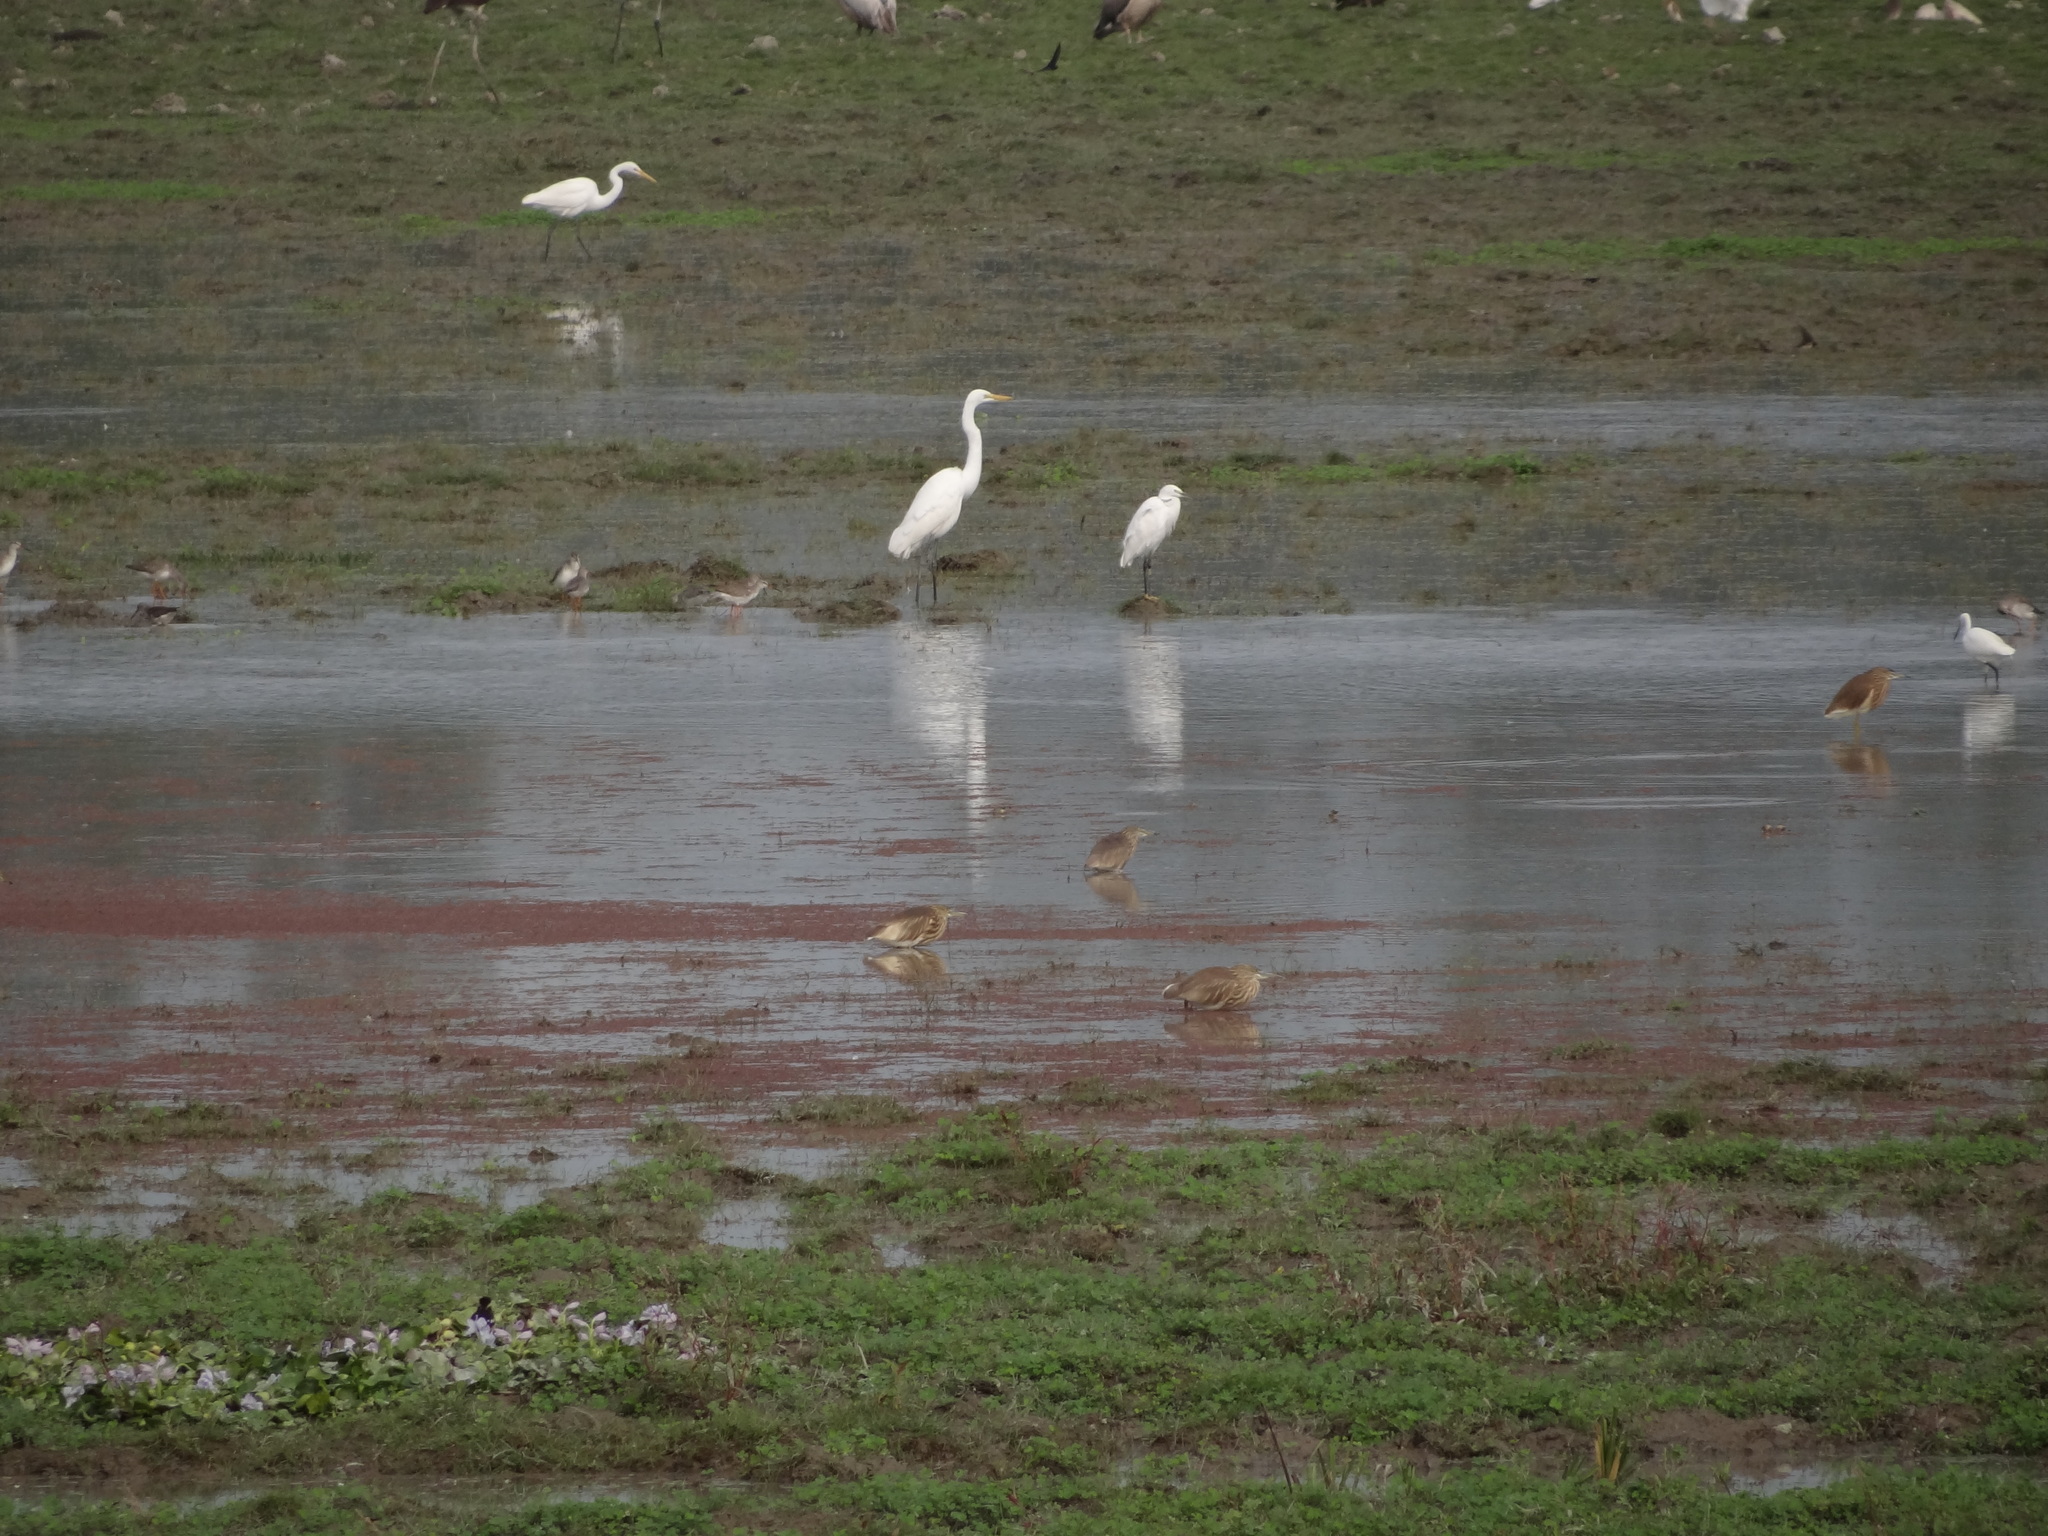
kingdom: Animalia
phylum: Chordata
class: Aves
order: Pelecaniformes
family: Ardeidae
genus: Ardeola
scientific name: Ardeola grayii
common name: Indian pond heron
